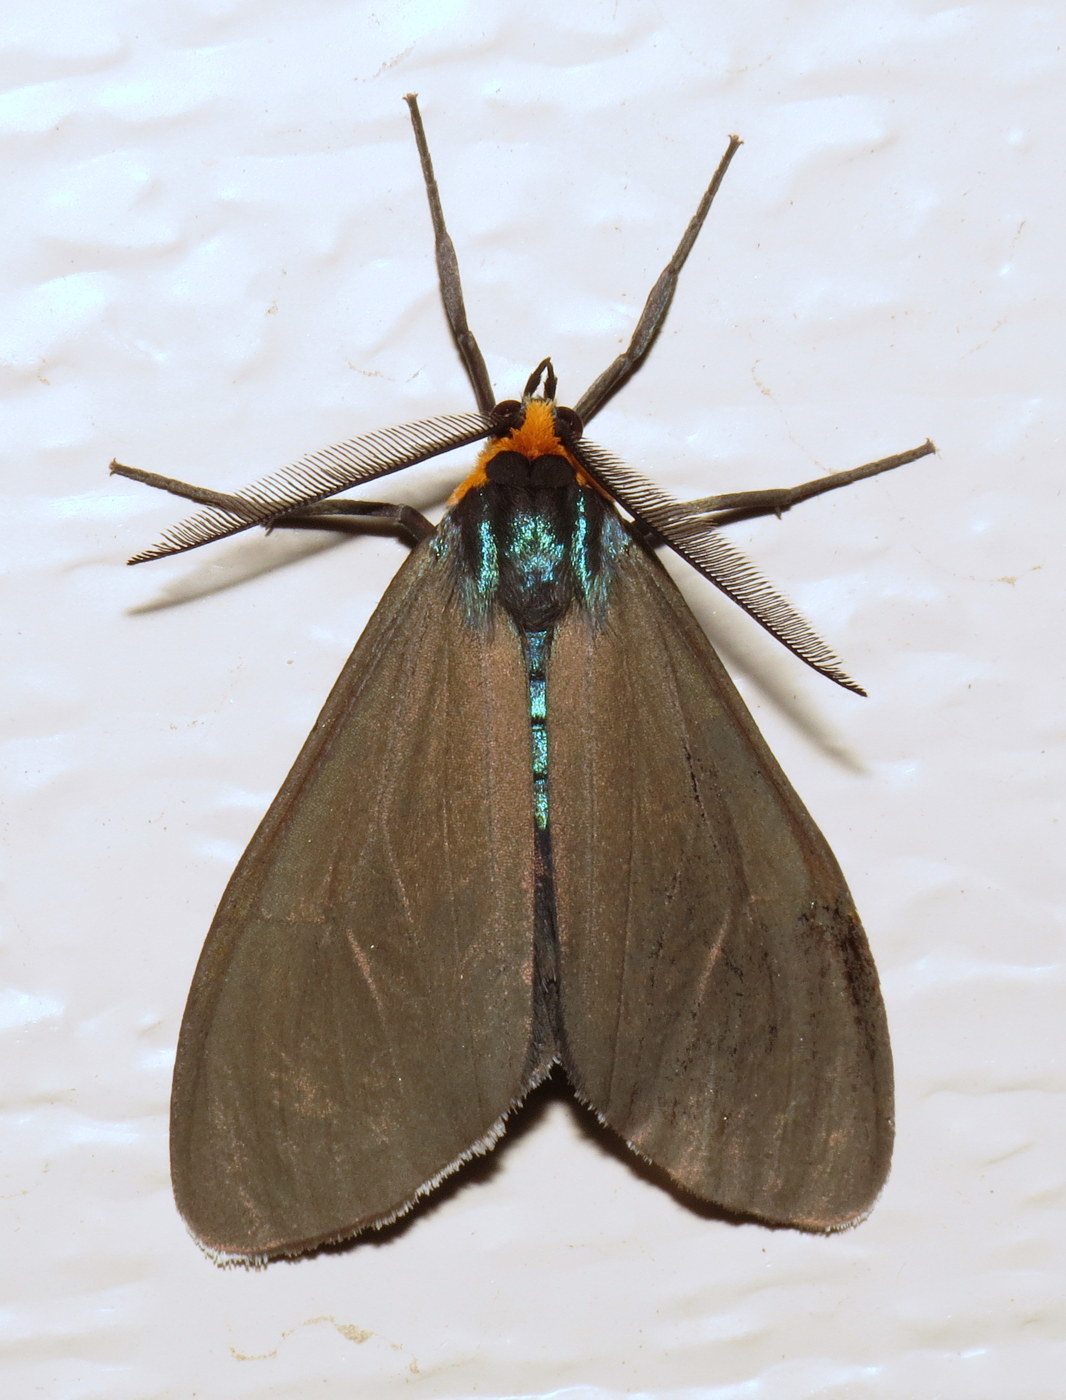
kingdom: Animalia
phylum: Arthropoda
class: Insecta
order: Lepidoptera
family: Erebidae
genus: Ctenucha
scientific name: Ctenucha virginica
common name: Virginia ctenucha moth
